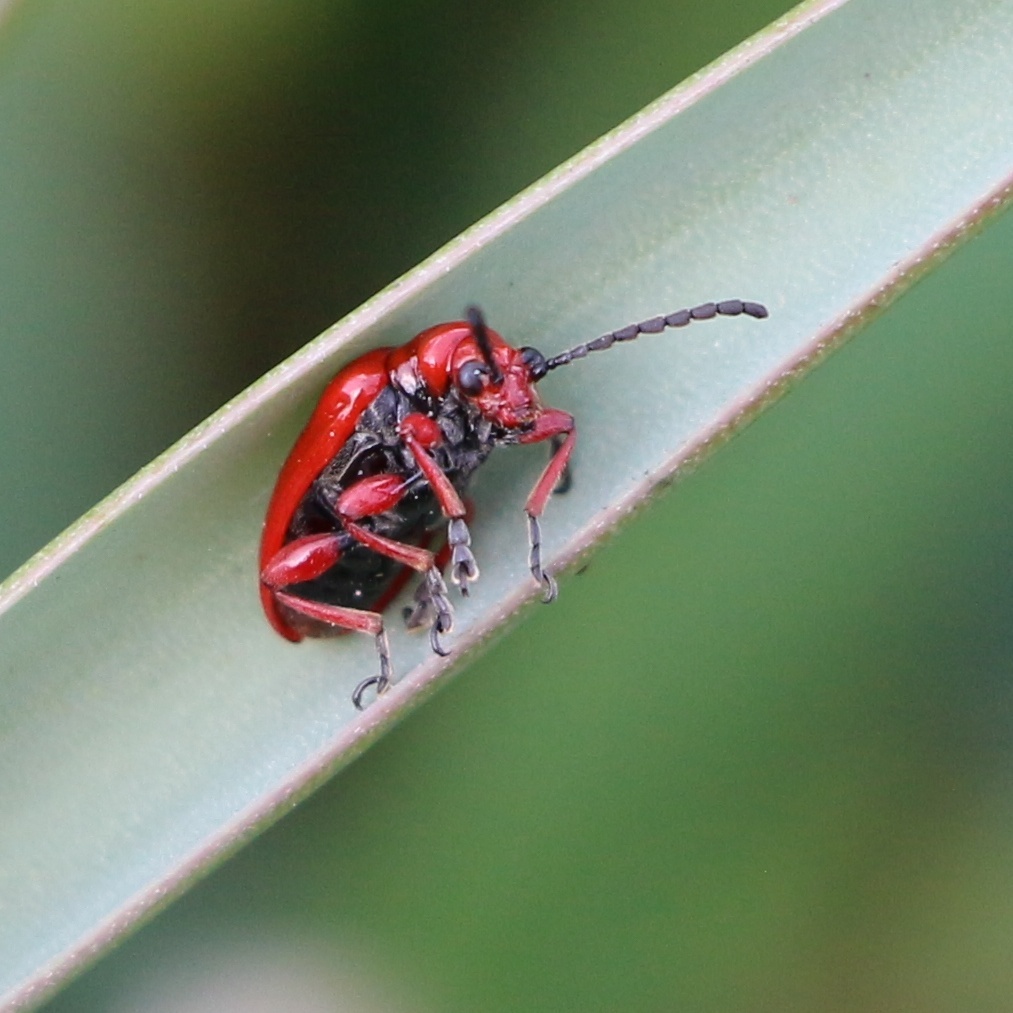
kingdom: Animalia
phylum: Arthropoda
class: Insecta
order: Coleoptera
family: Chrysomelidae
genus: Lilioceris
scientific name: Lilioceris faldermanni
